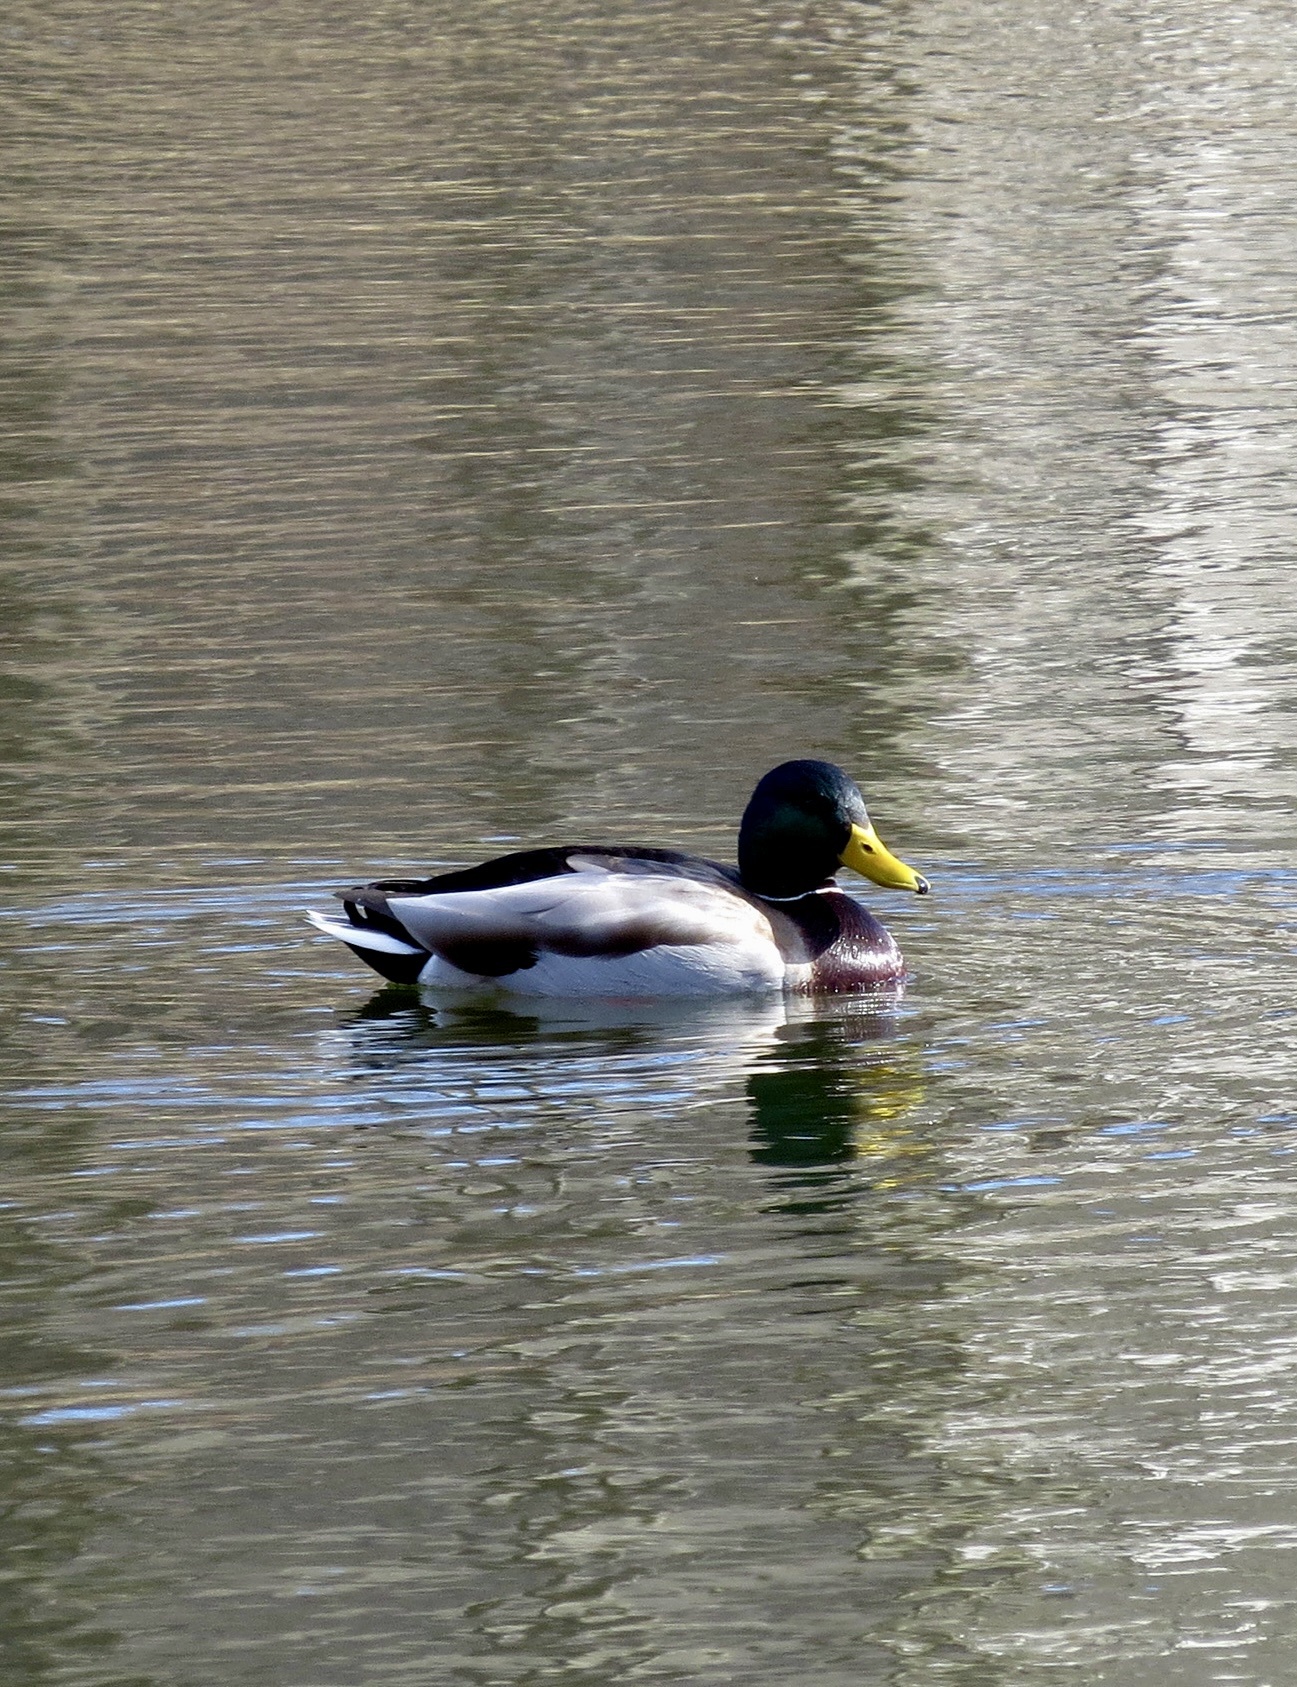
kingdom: Animalia
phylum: Chordata
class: Aves
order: Anseriformes
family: Anatidae
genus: Anas
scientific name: Anas platyrhynchos
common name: Mallard
